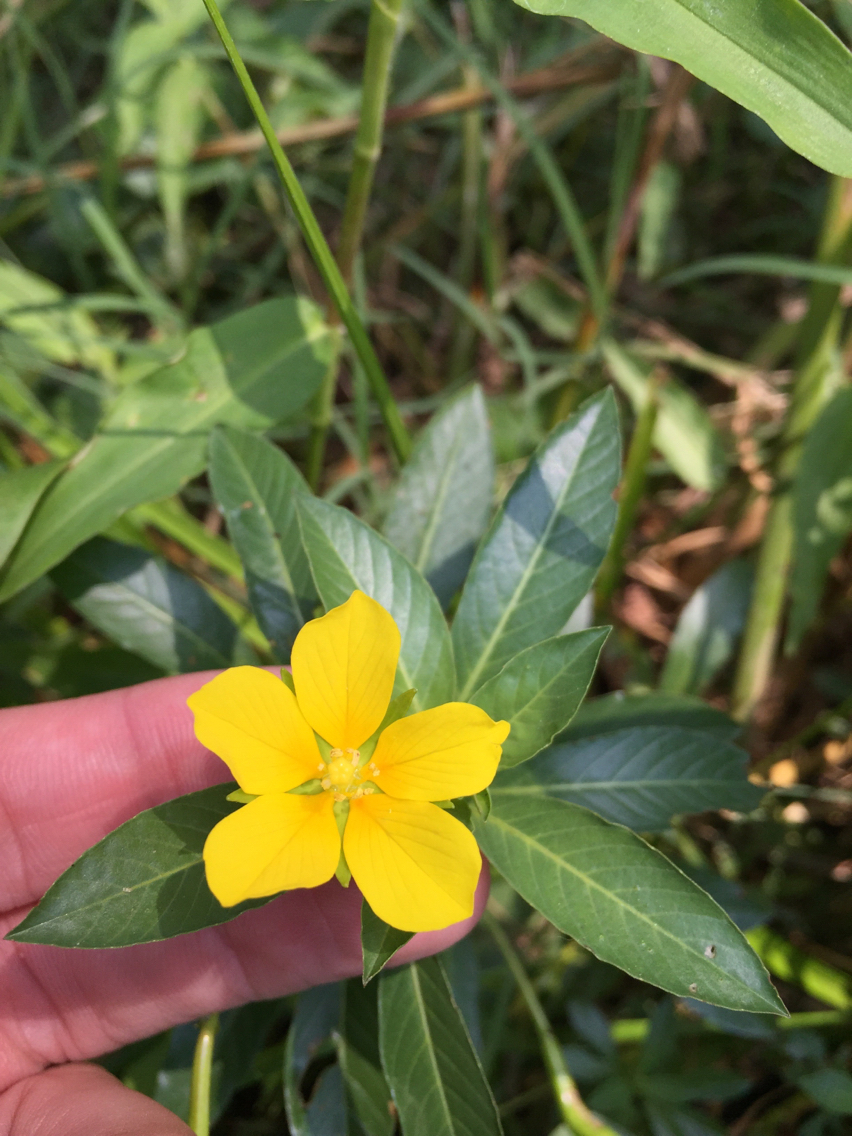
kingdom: Plantae
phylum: Tracheophyta
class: Magnoliopsida
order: Myrtales
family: Onagraceae
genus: Ludwigia
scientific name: Ludwigia peploides
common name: Floating primrose-willow
